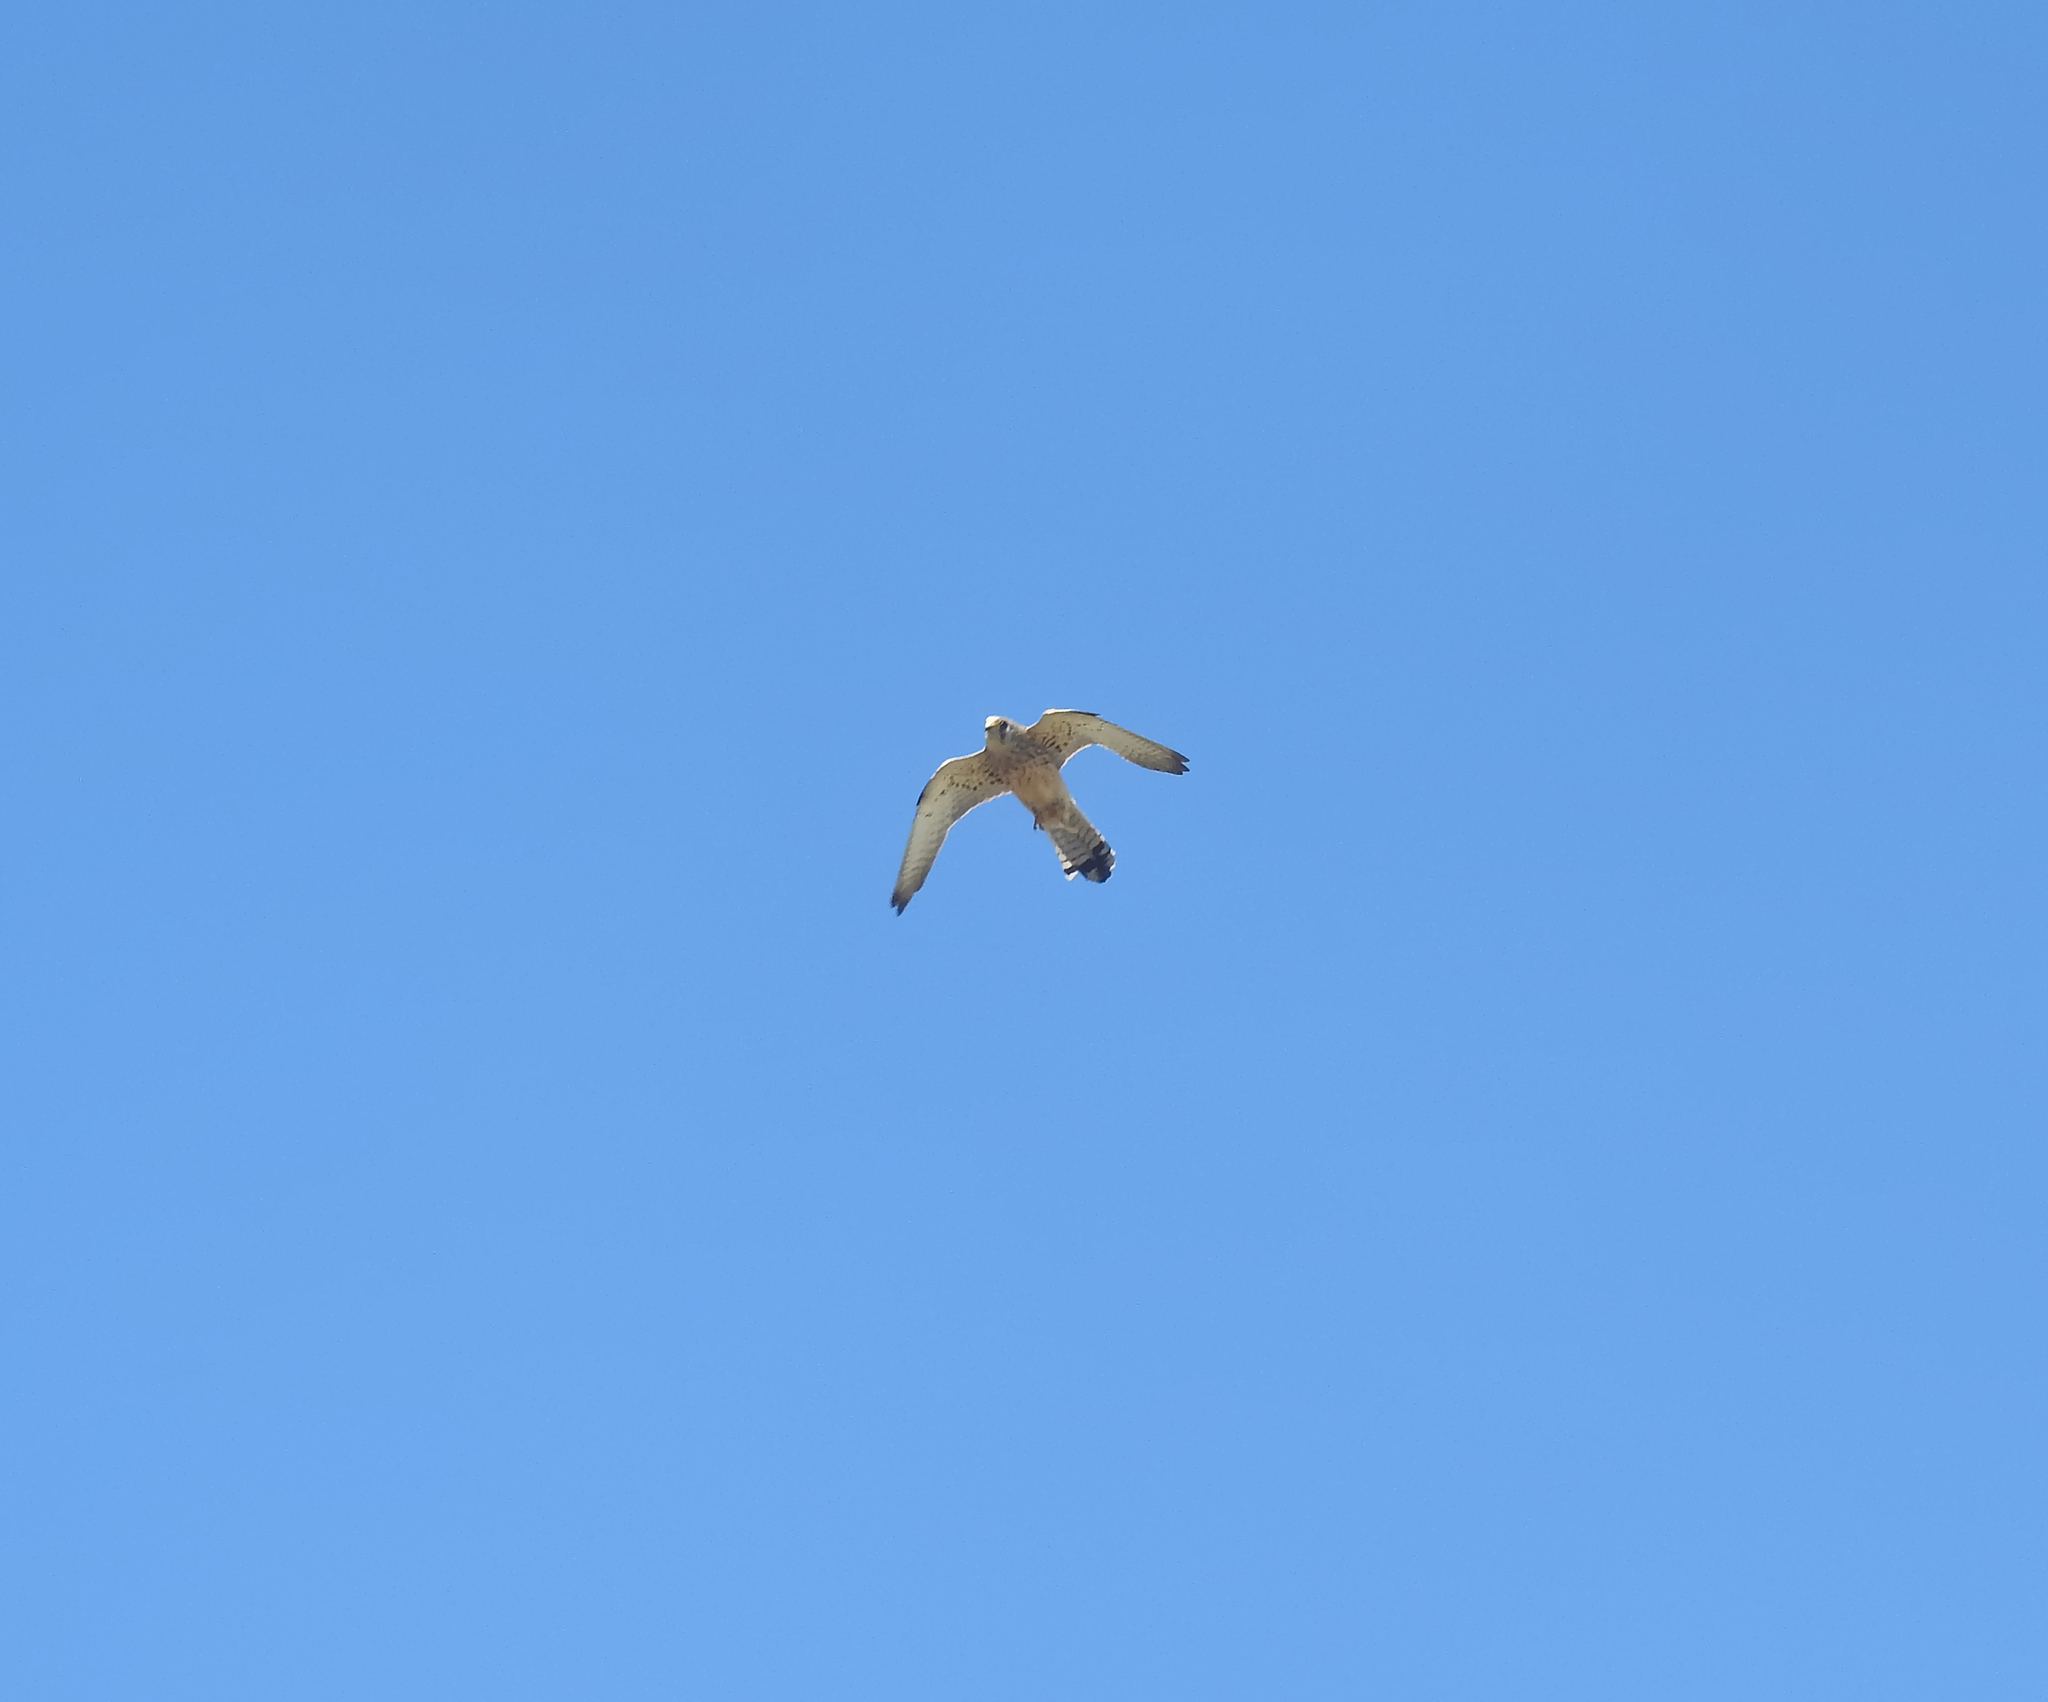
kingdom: Animalia
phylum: Chordata
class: Aves
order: Falconiformes
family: Falconidae
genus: Falco
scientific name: Falco tinnunculus
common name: Common kestrel
